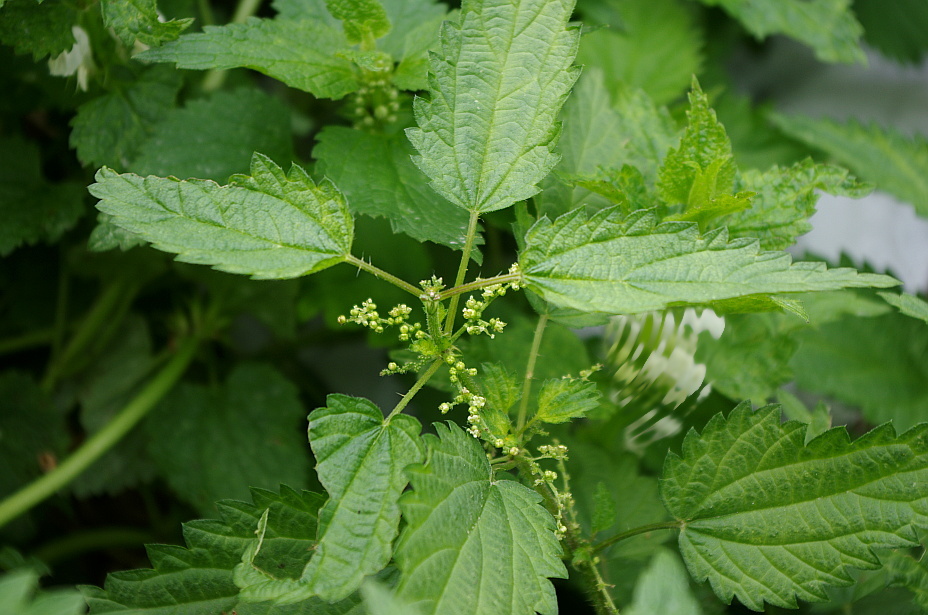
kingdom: Plantae
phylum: Tracheophyta
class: Magnoliopsida
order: Rosales
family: Urticaceae
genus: Urtica
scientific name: Urtica dioica
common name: Common nettle
